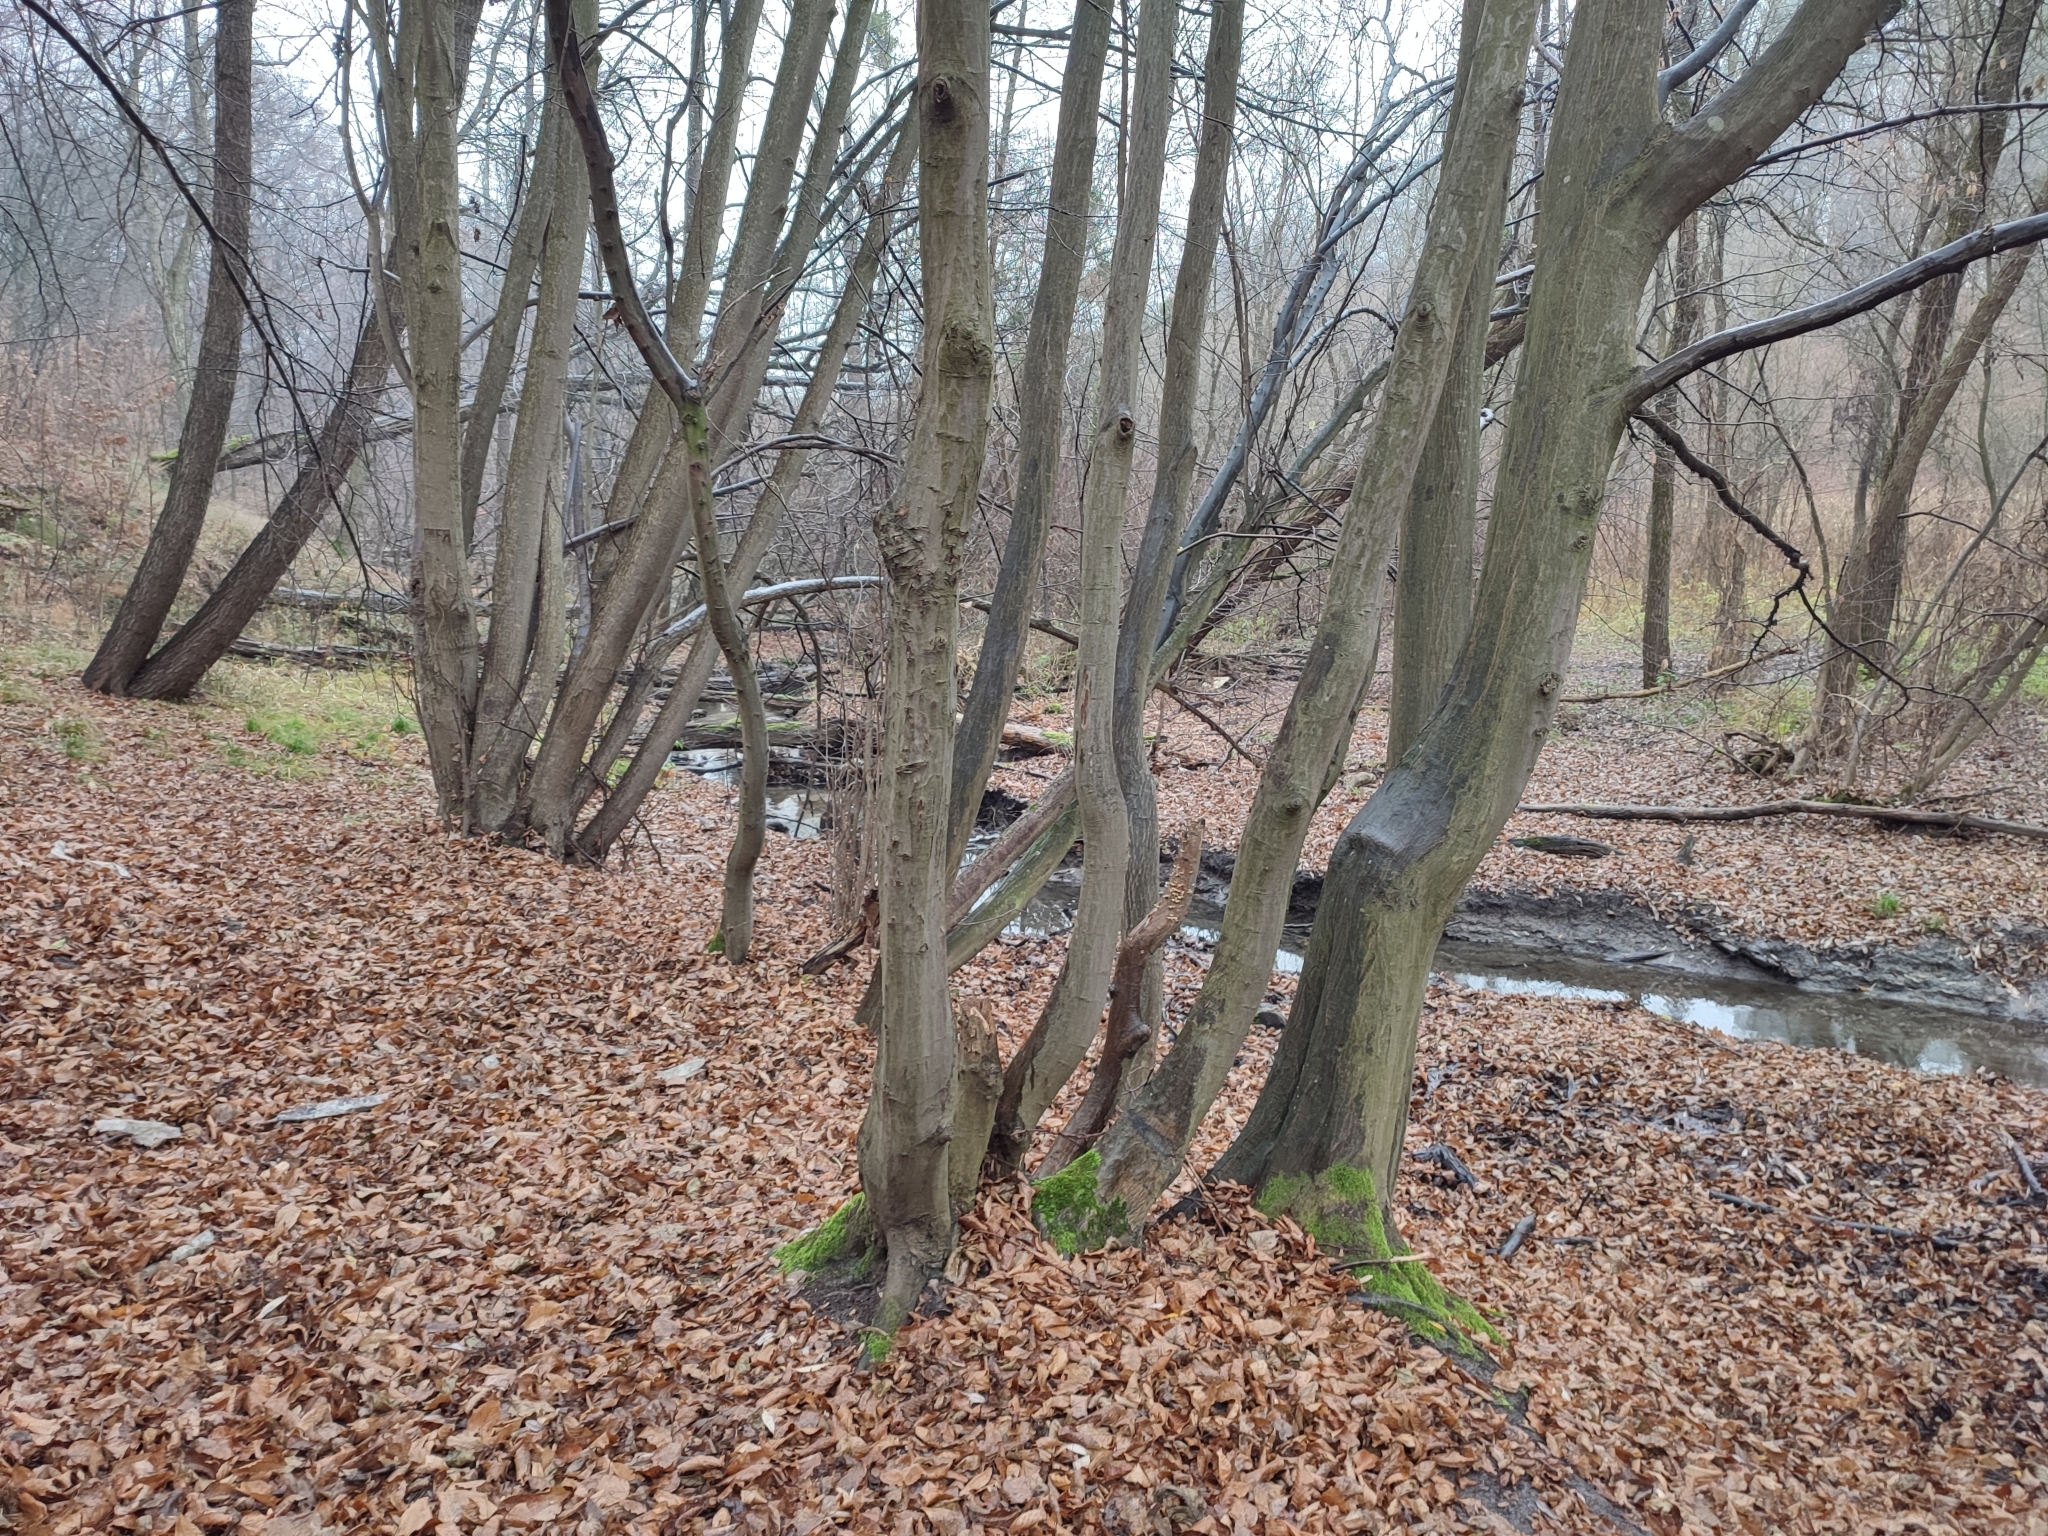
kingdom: Plantae
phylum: Tracheophyta
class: Magnoliopsida
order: Fagales
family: Betulaceae
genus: Carpinus
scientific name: Carpinus betulus
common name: Hornbeam
